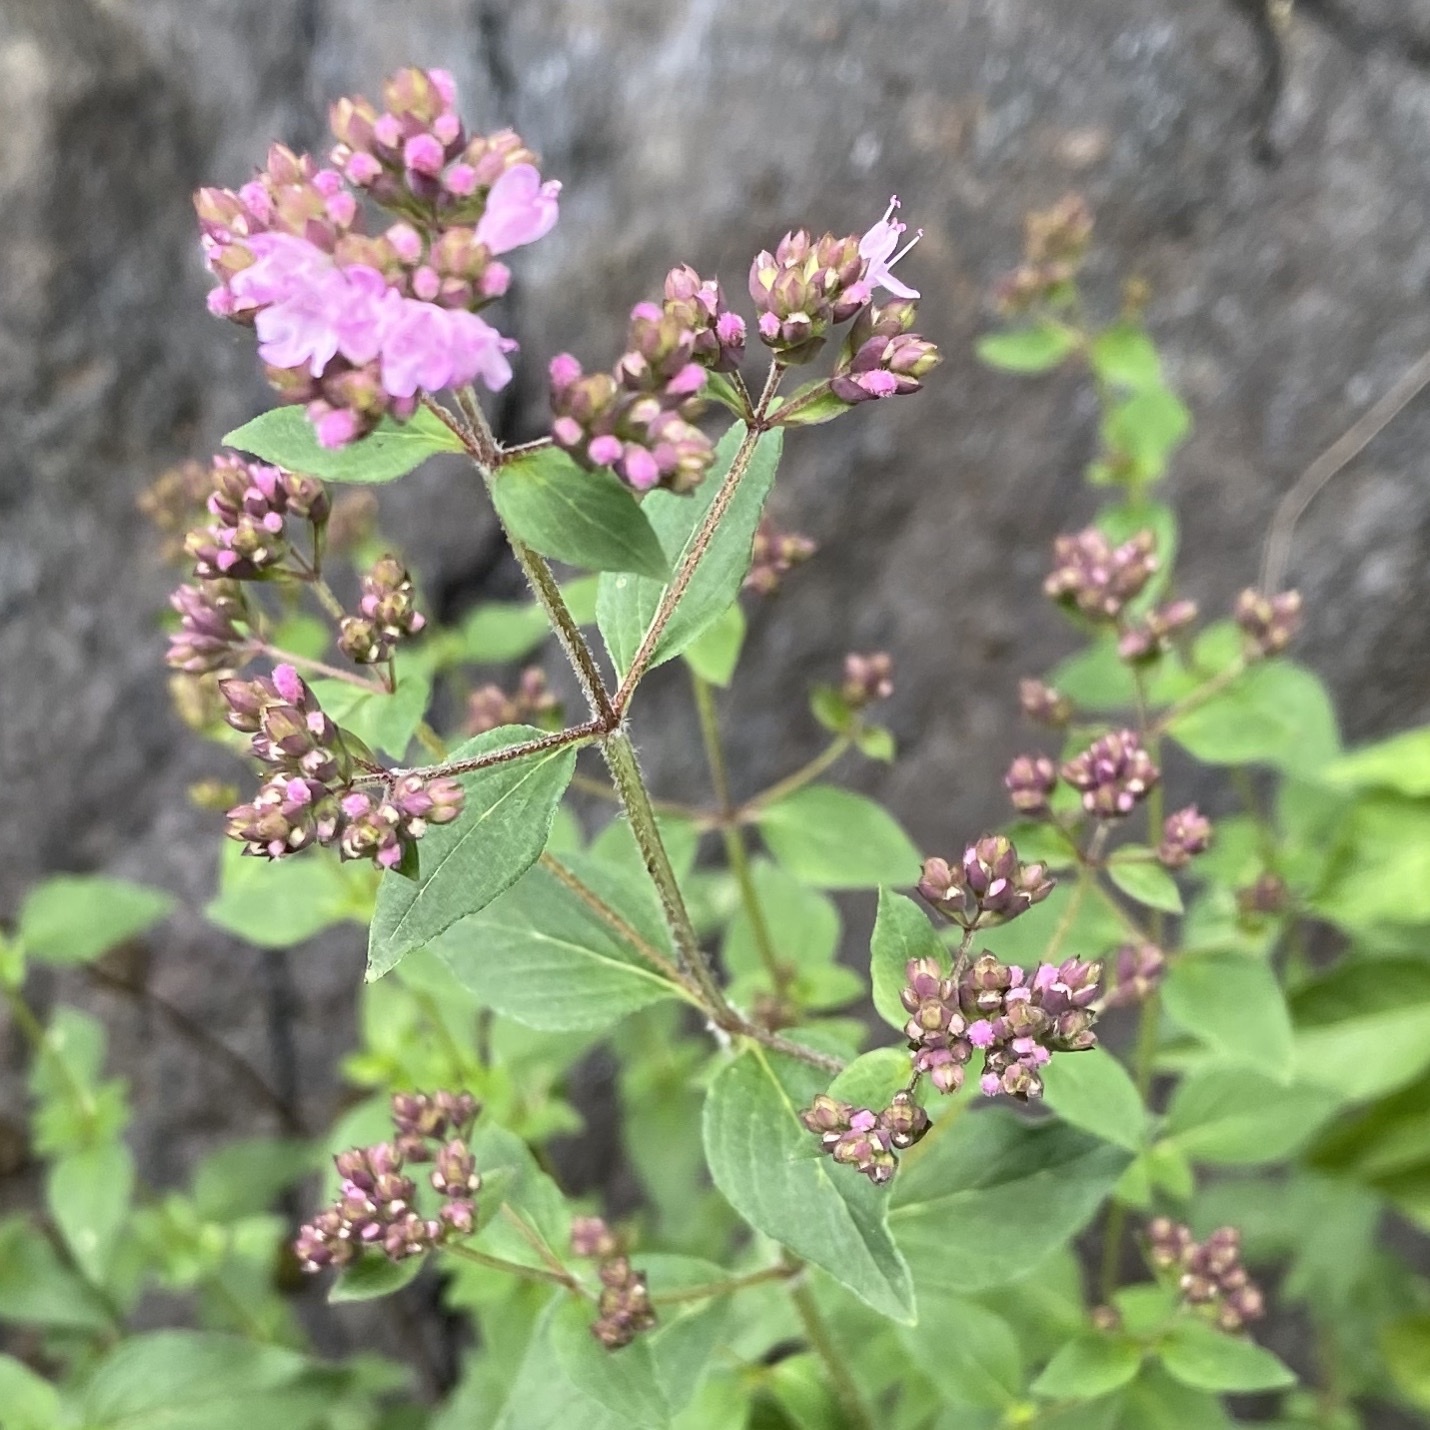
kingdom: Plantae
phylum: Tracheophyta
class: Magnoliopsida
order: Lamiales
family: Lamiaceae
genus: Origanum
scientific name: Origanum vulgare
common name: Wild marjoram
